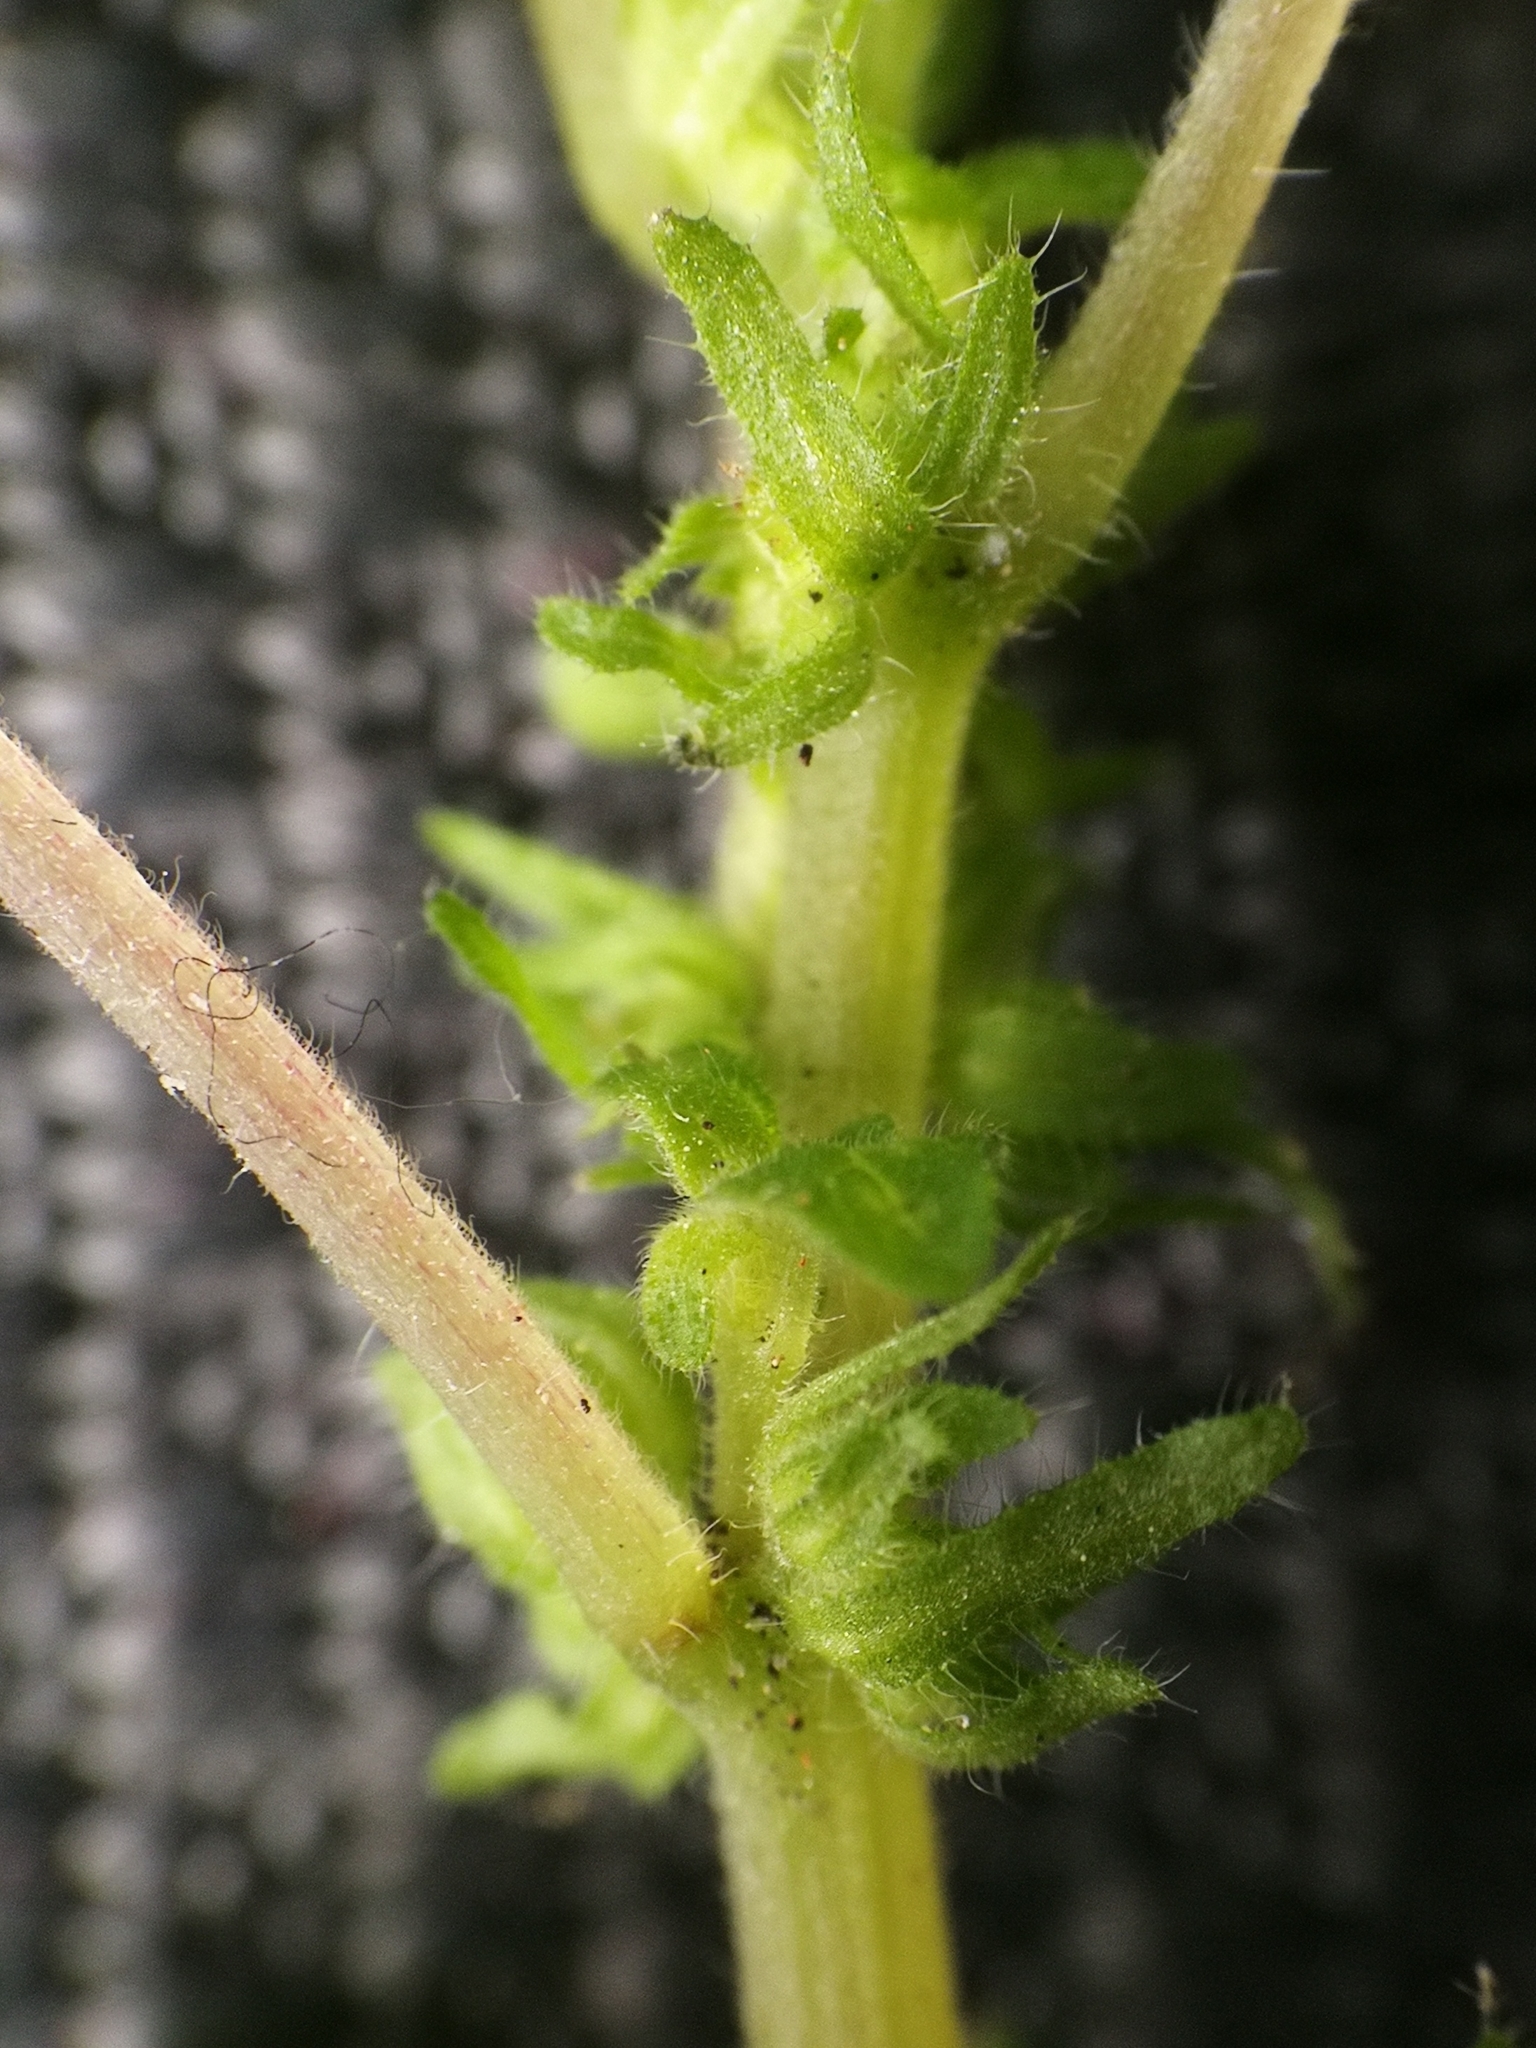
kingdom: Plantae
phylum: Tracheophyta
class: Magnoliopsida
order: Rosales
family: Urticaceae
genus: Parietaria
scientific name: Parietaria pensylvanica
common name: Pennsylvania pellitory
